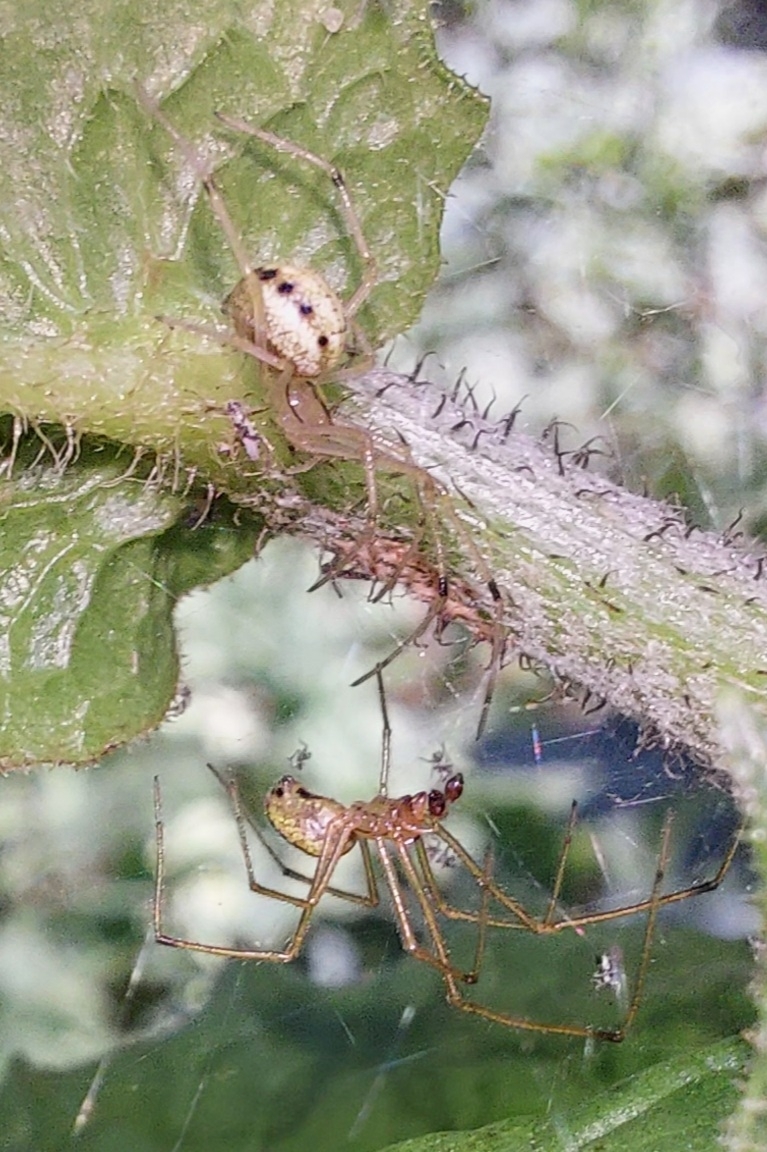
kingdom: Animalia
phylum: Arthropoda
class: Arachnida
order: Araneae
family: Theridiidae
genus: Enoplognatha
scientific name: Enoplognatha ovata
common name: Common candy-striped spider
